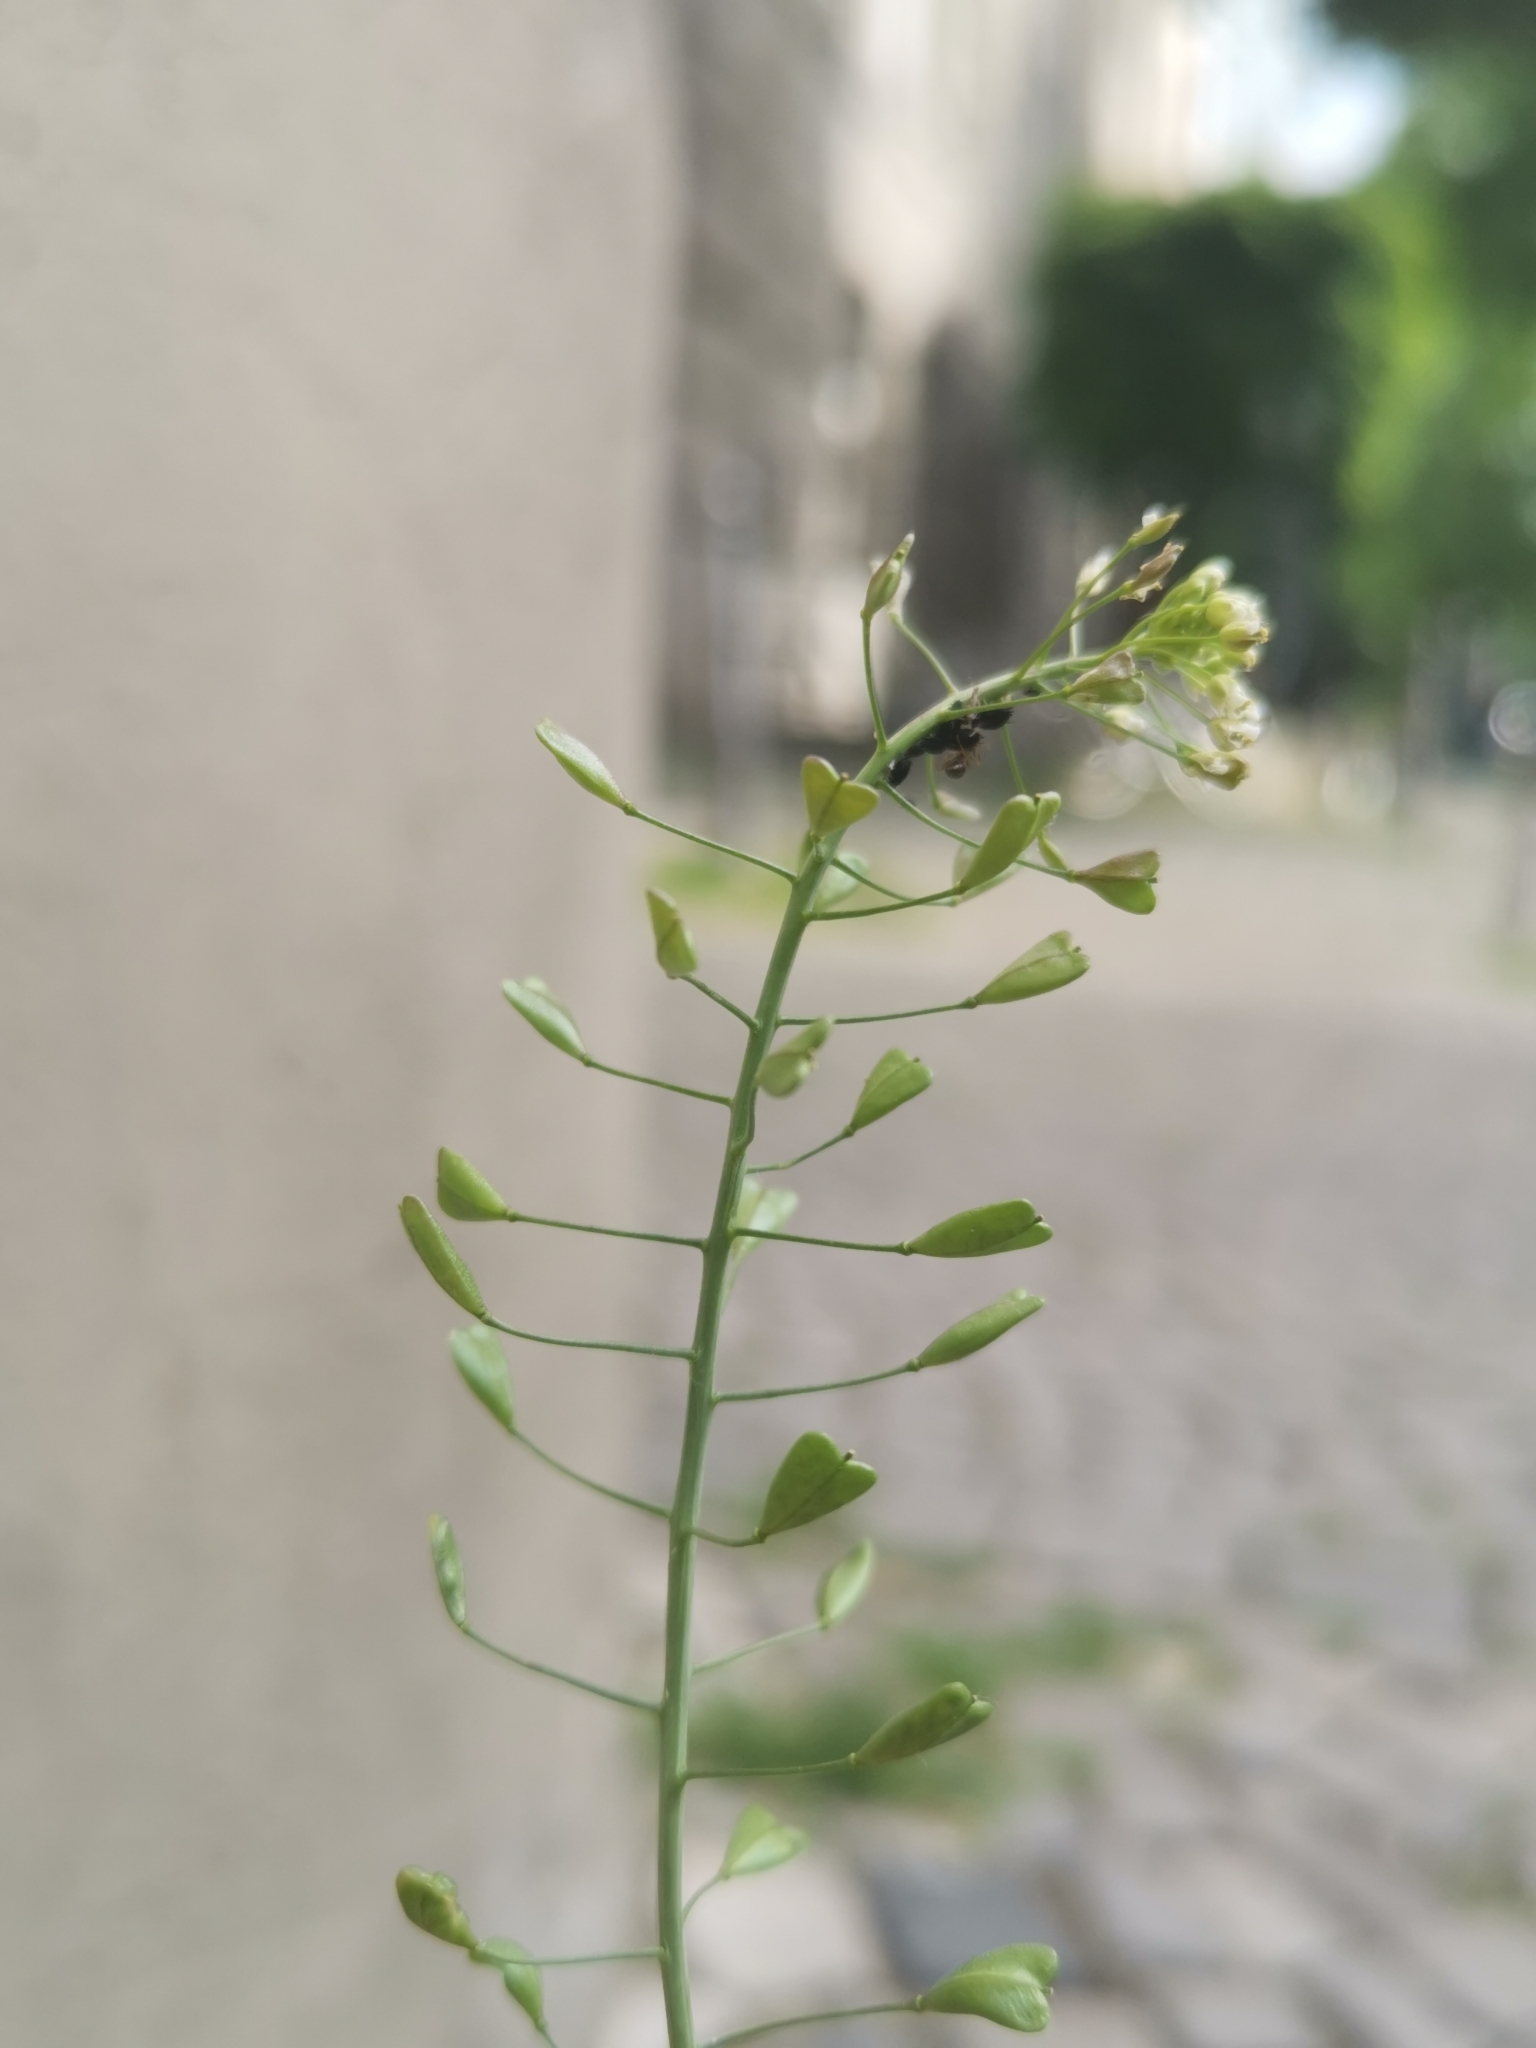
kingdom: Plantae
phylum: Tracheophyta
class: Magnoliopsida
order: Brassicales
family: Brassicaceae
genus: Capsella
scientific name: Capsella bursa-pastoris
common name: Shepherd's purse
